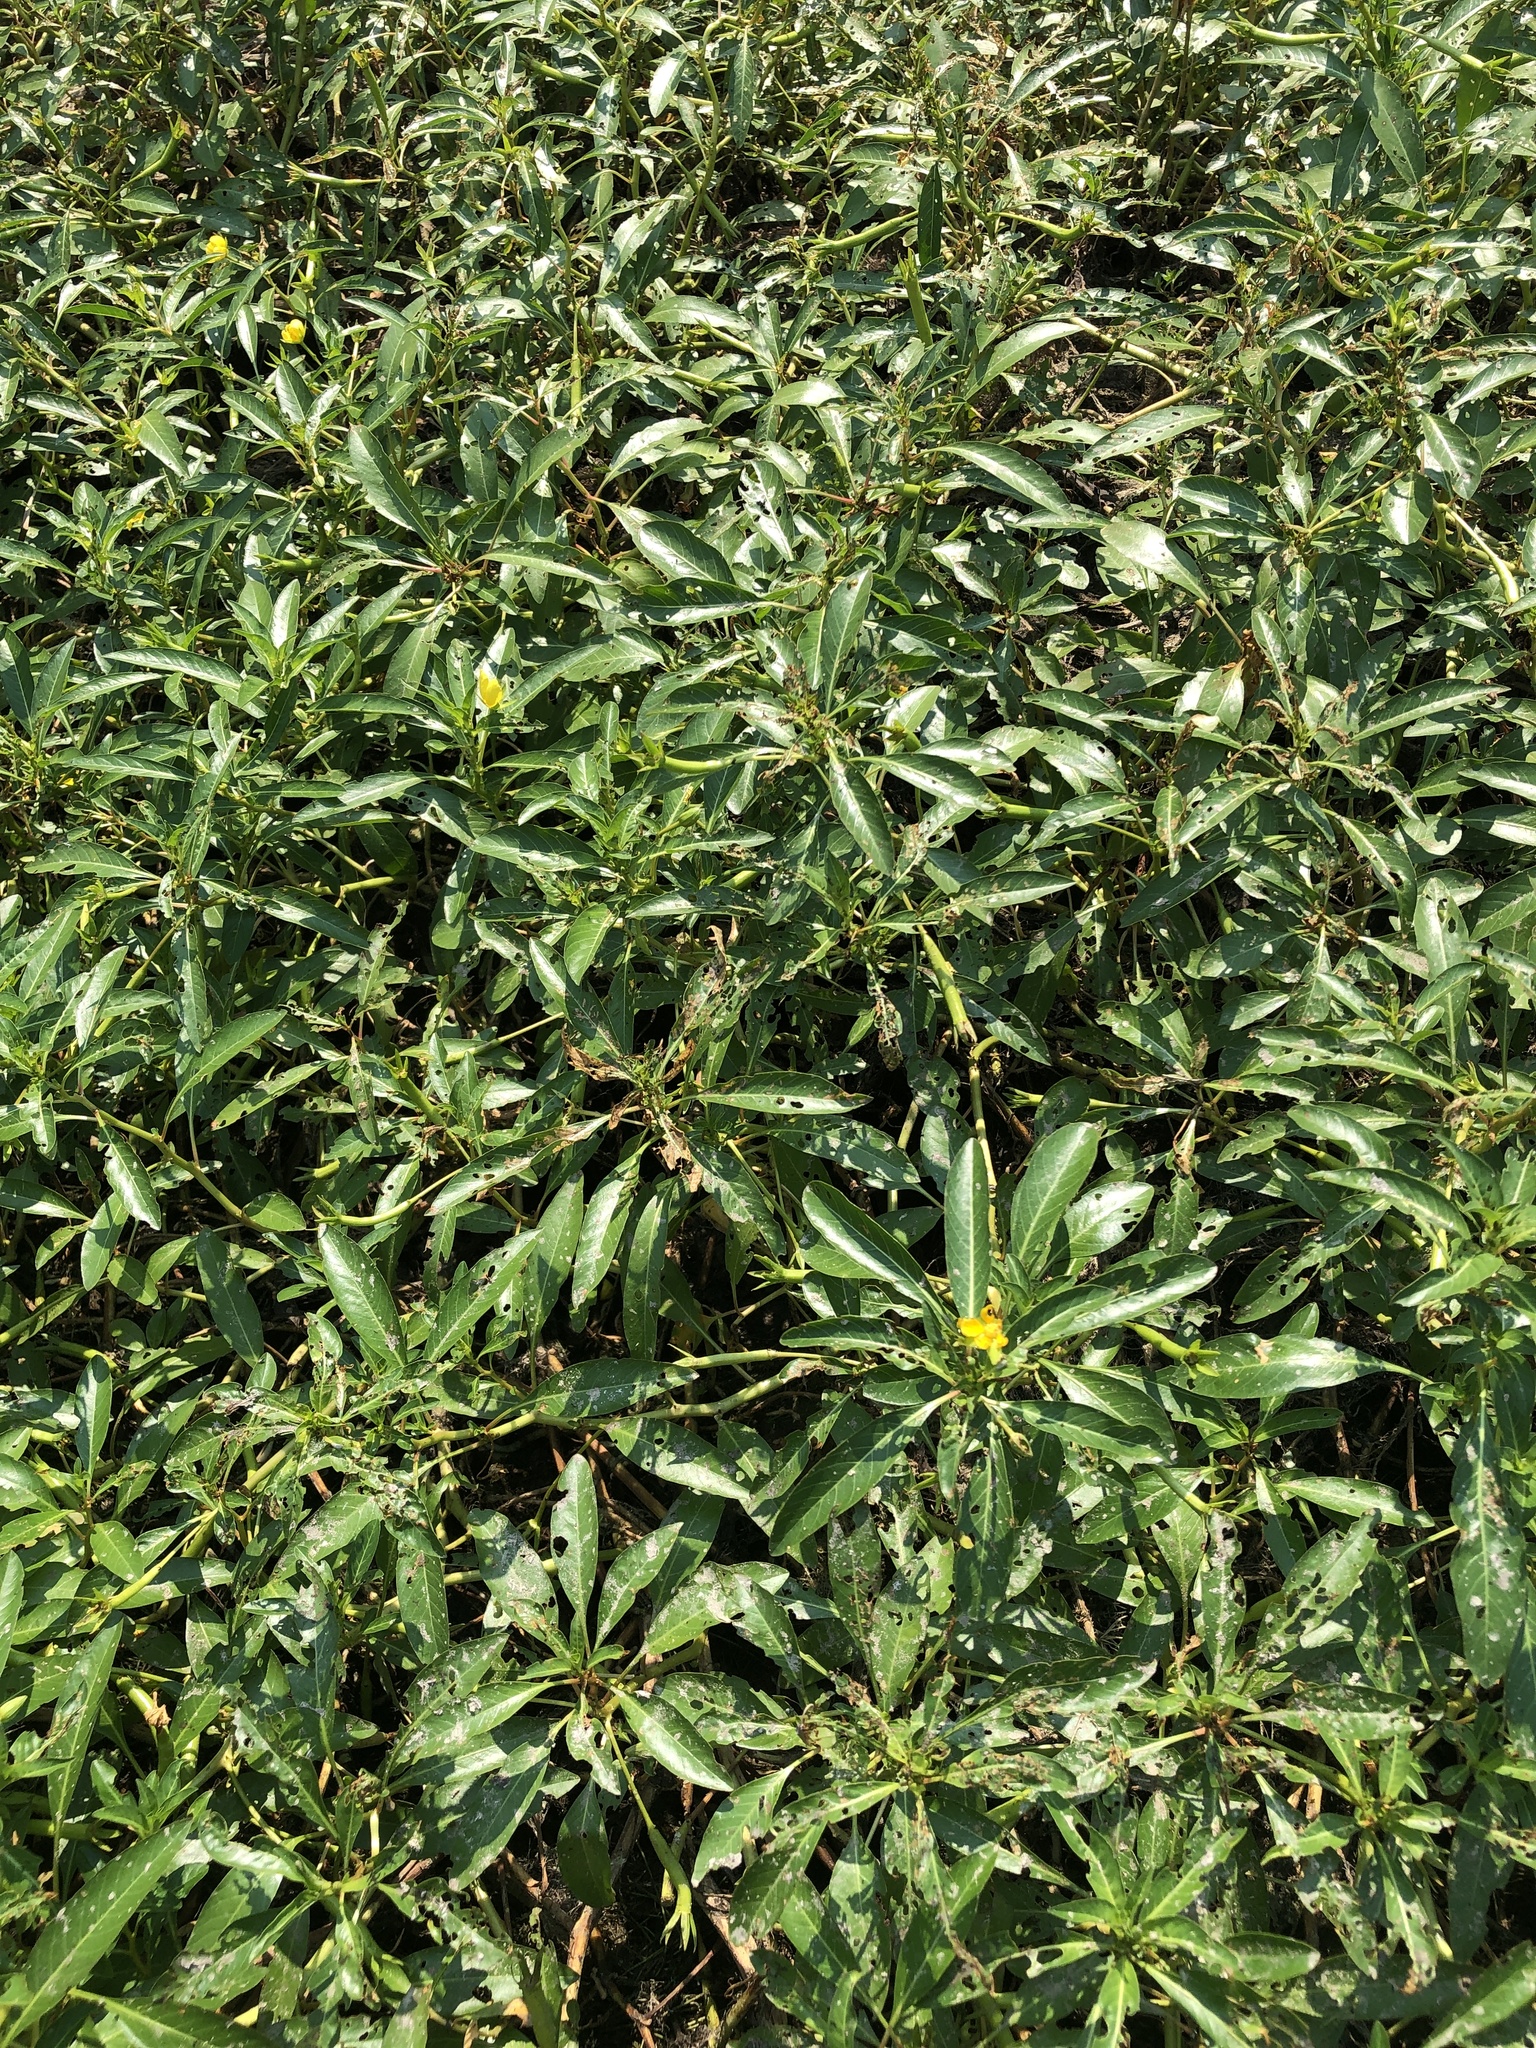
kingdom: Plantae
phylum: Tracheophyta
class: Magnoliopsida
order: Myrtales
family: Onagraceae
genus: Ludwigia
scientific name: Ludwigia peploides
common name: Floating primrose-willow
